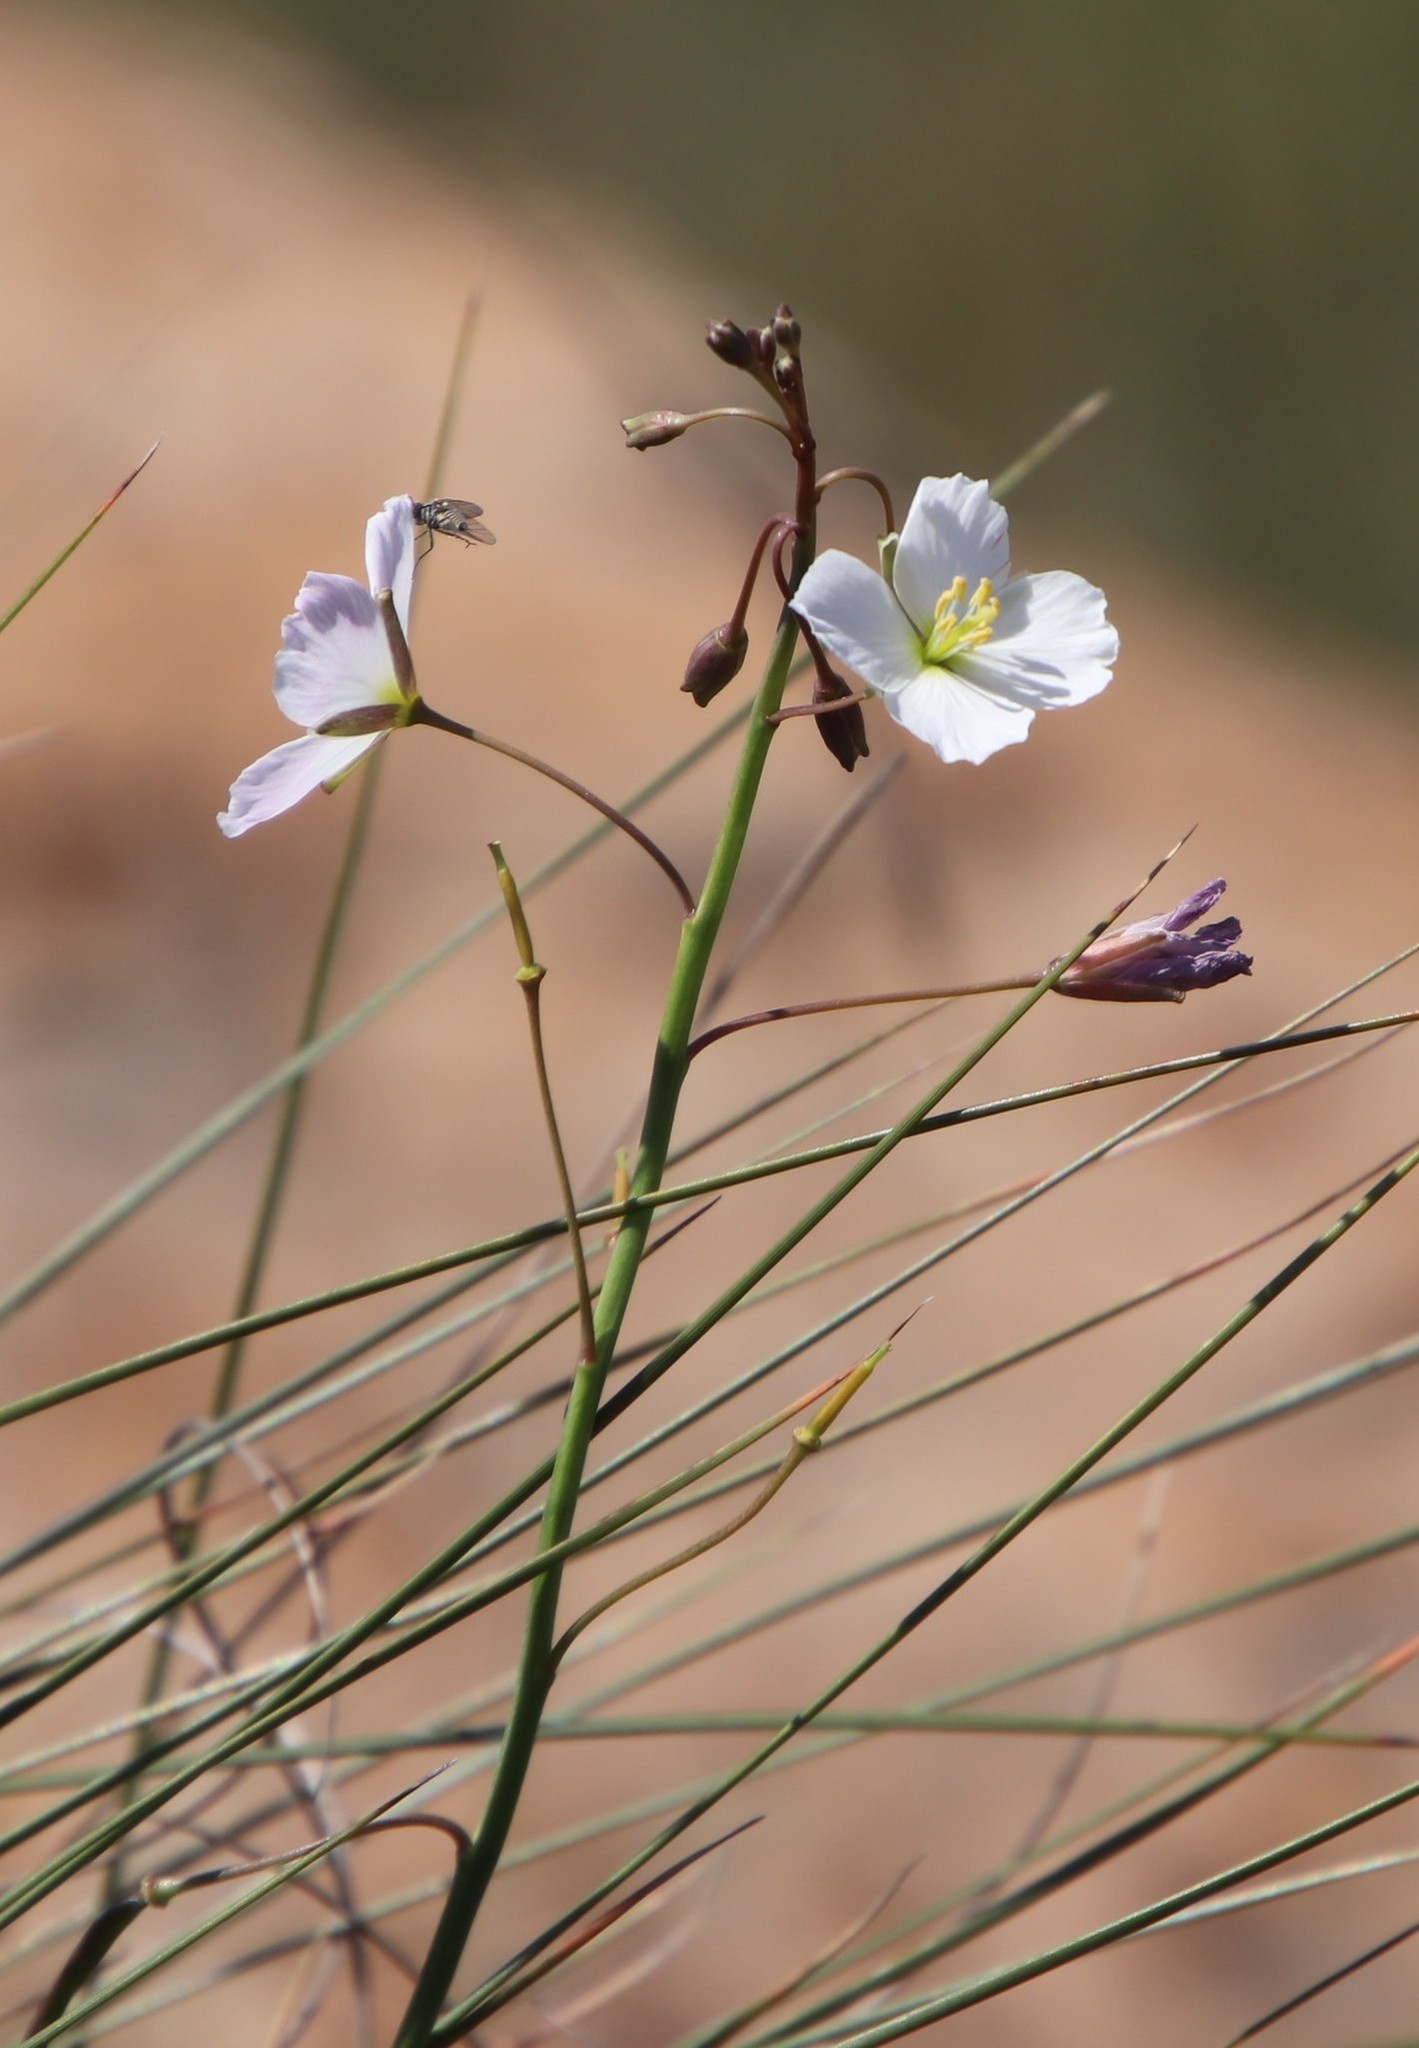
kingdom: Plantae
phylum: Tracheophyta
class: Magnoliopsida
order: Brassicales
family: Brassicaceae
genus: Heliophila
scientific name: Heliophila carnosa
